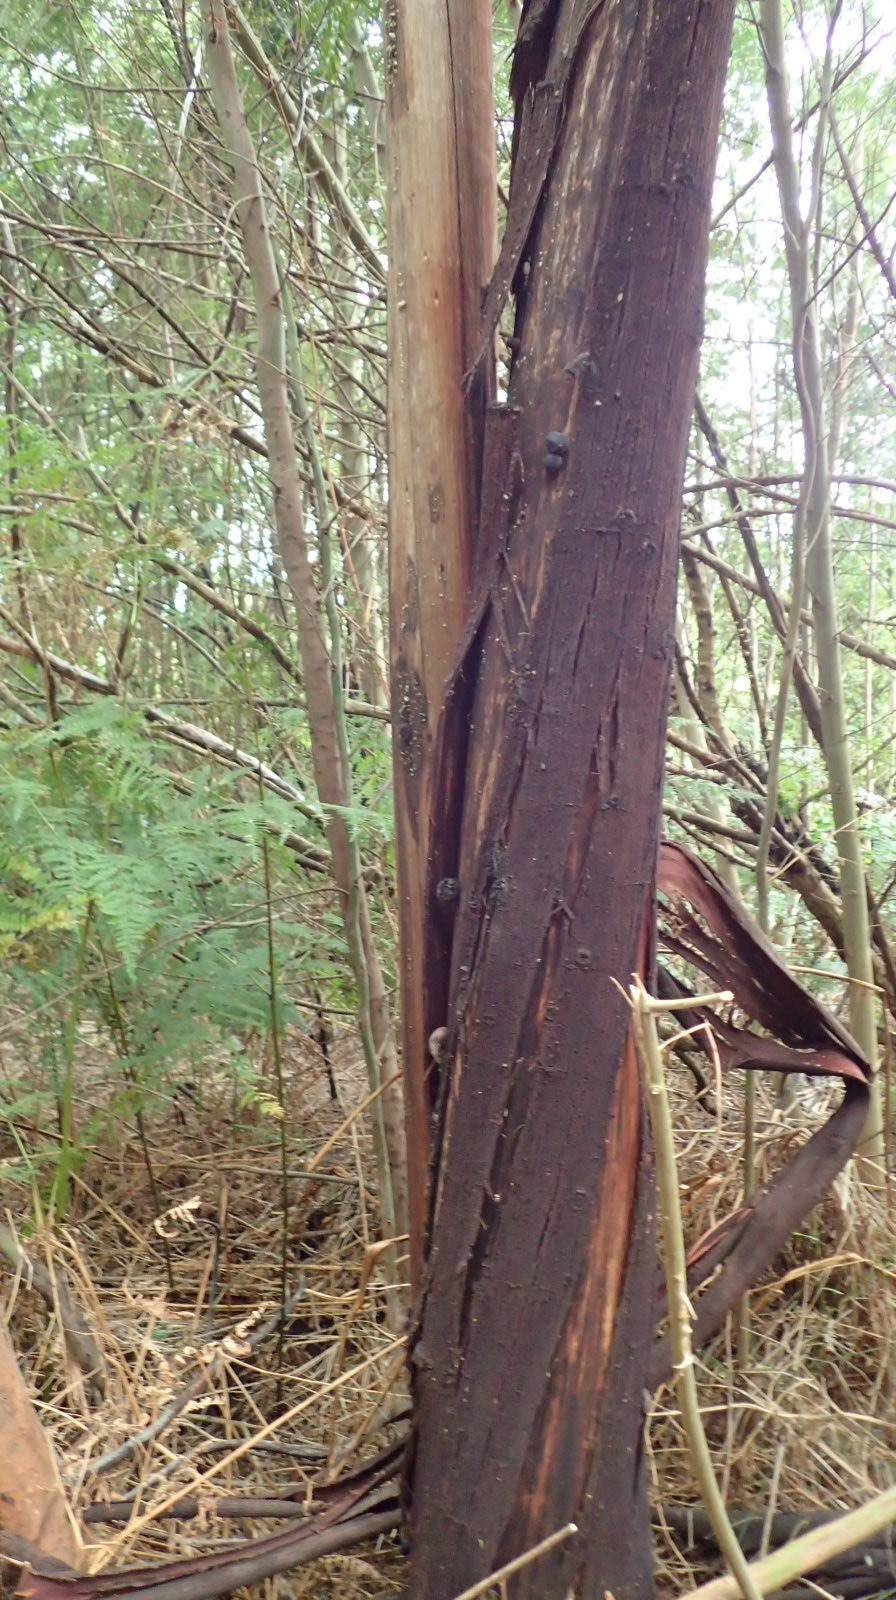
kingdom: Fungi
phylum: Ascomycota
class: Sordariomycetes
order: Xylariales
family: Hypoxylaceae
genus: Daldinia
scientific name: Daldinia concentrica
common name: Cramp balls
